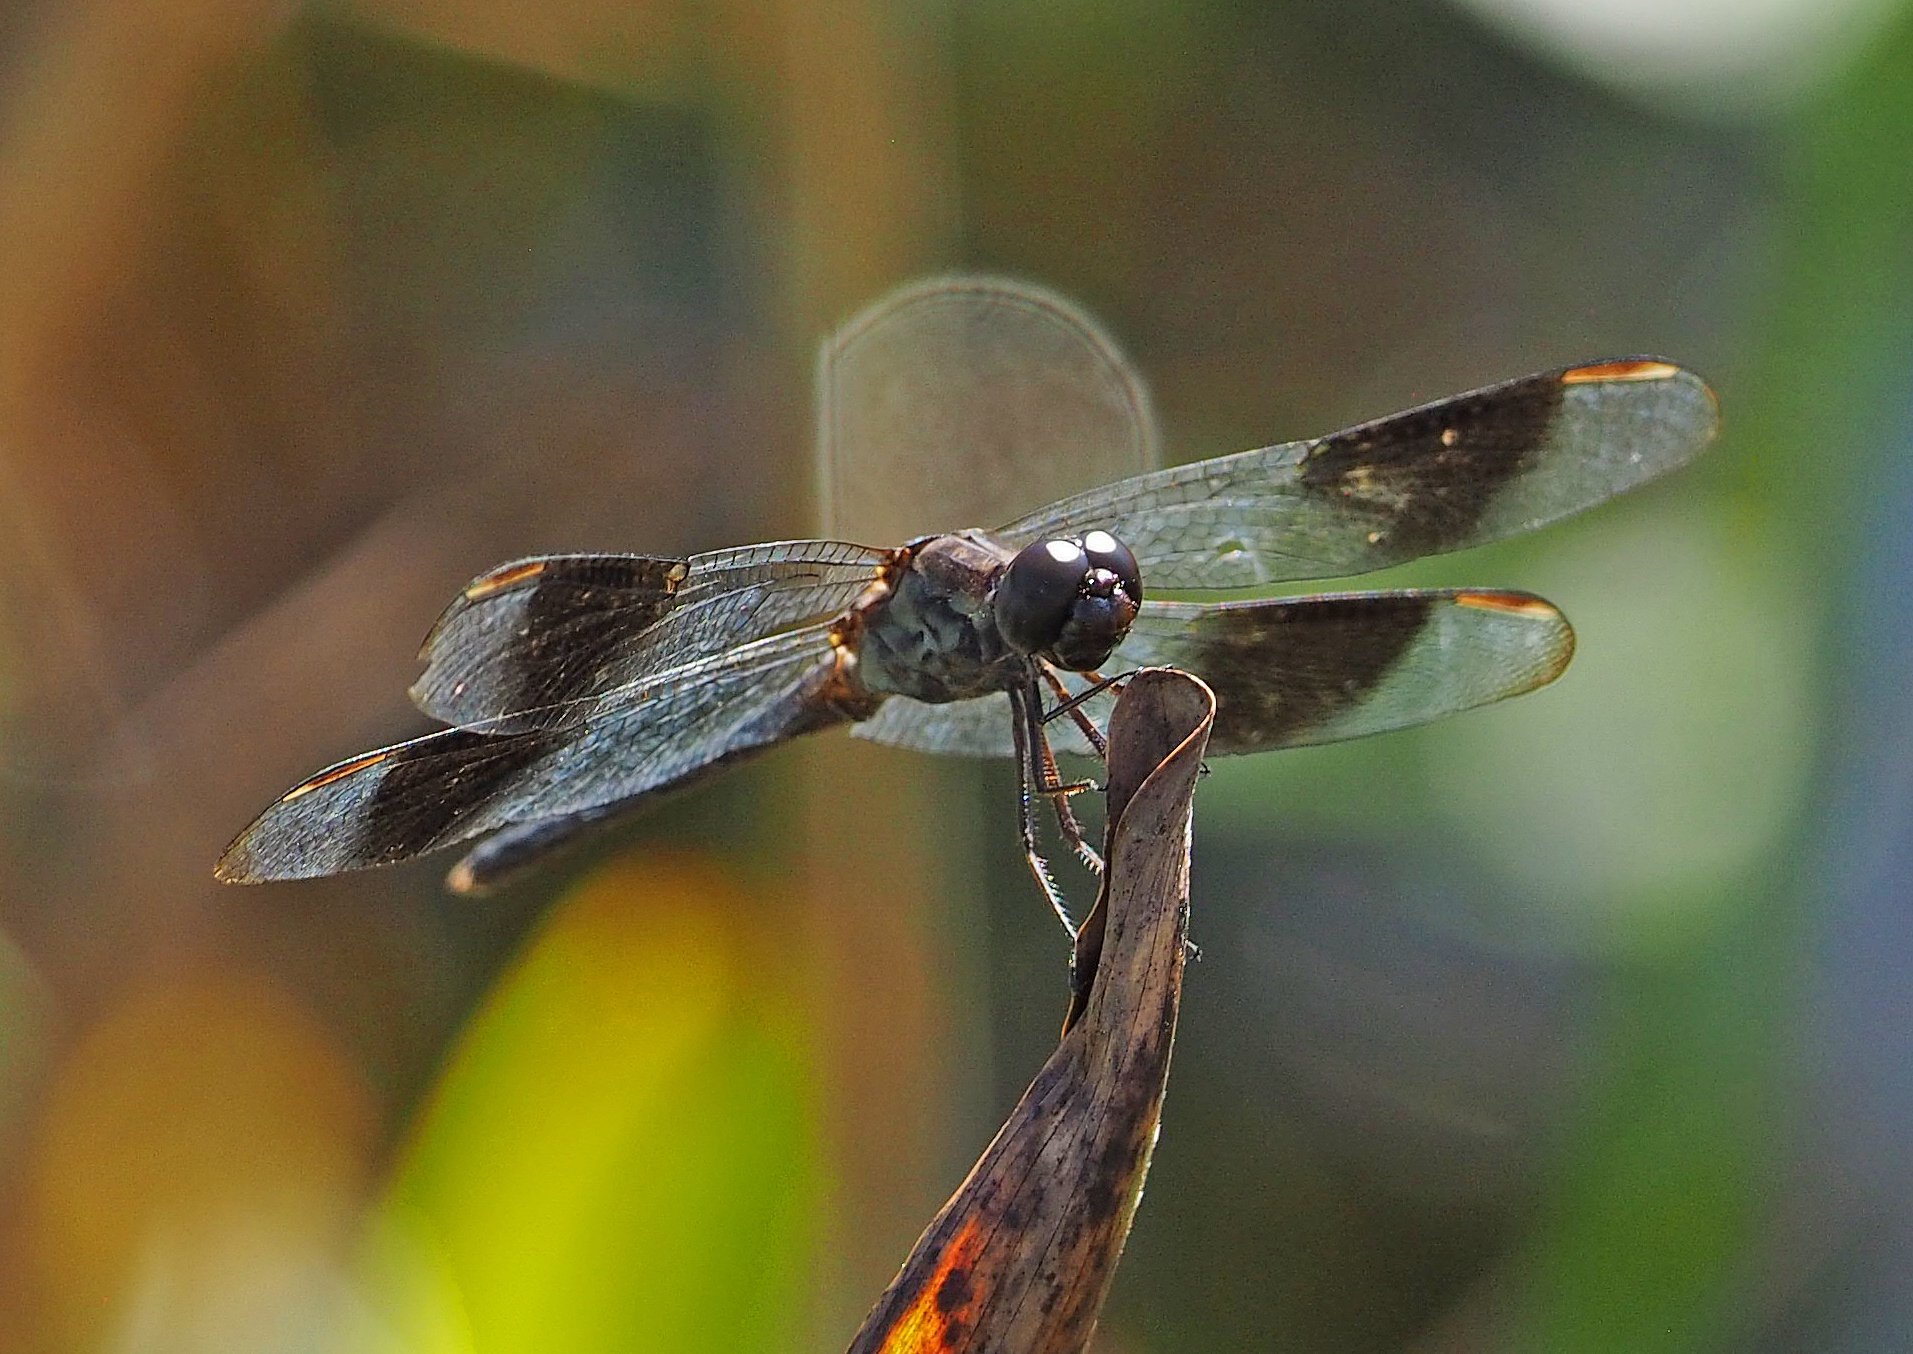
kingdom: Animalia
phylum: Arthropoda
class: Insecta
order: Odonata
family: Libellulidae
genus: Erythrodiplax
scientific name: Erythrodiplax umbrata
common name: Band-winged dragonlet
